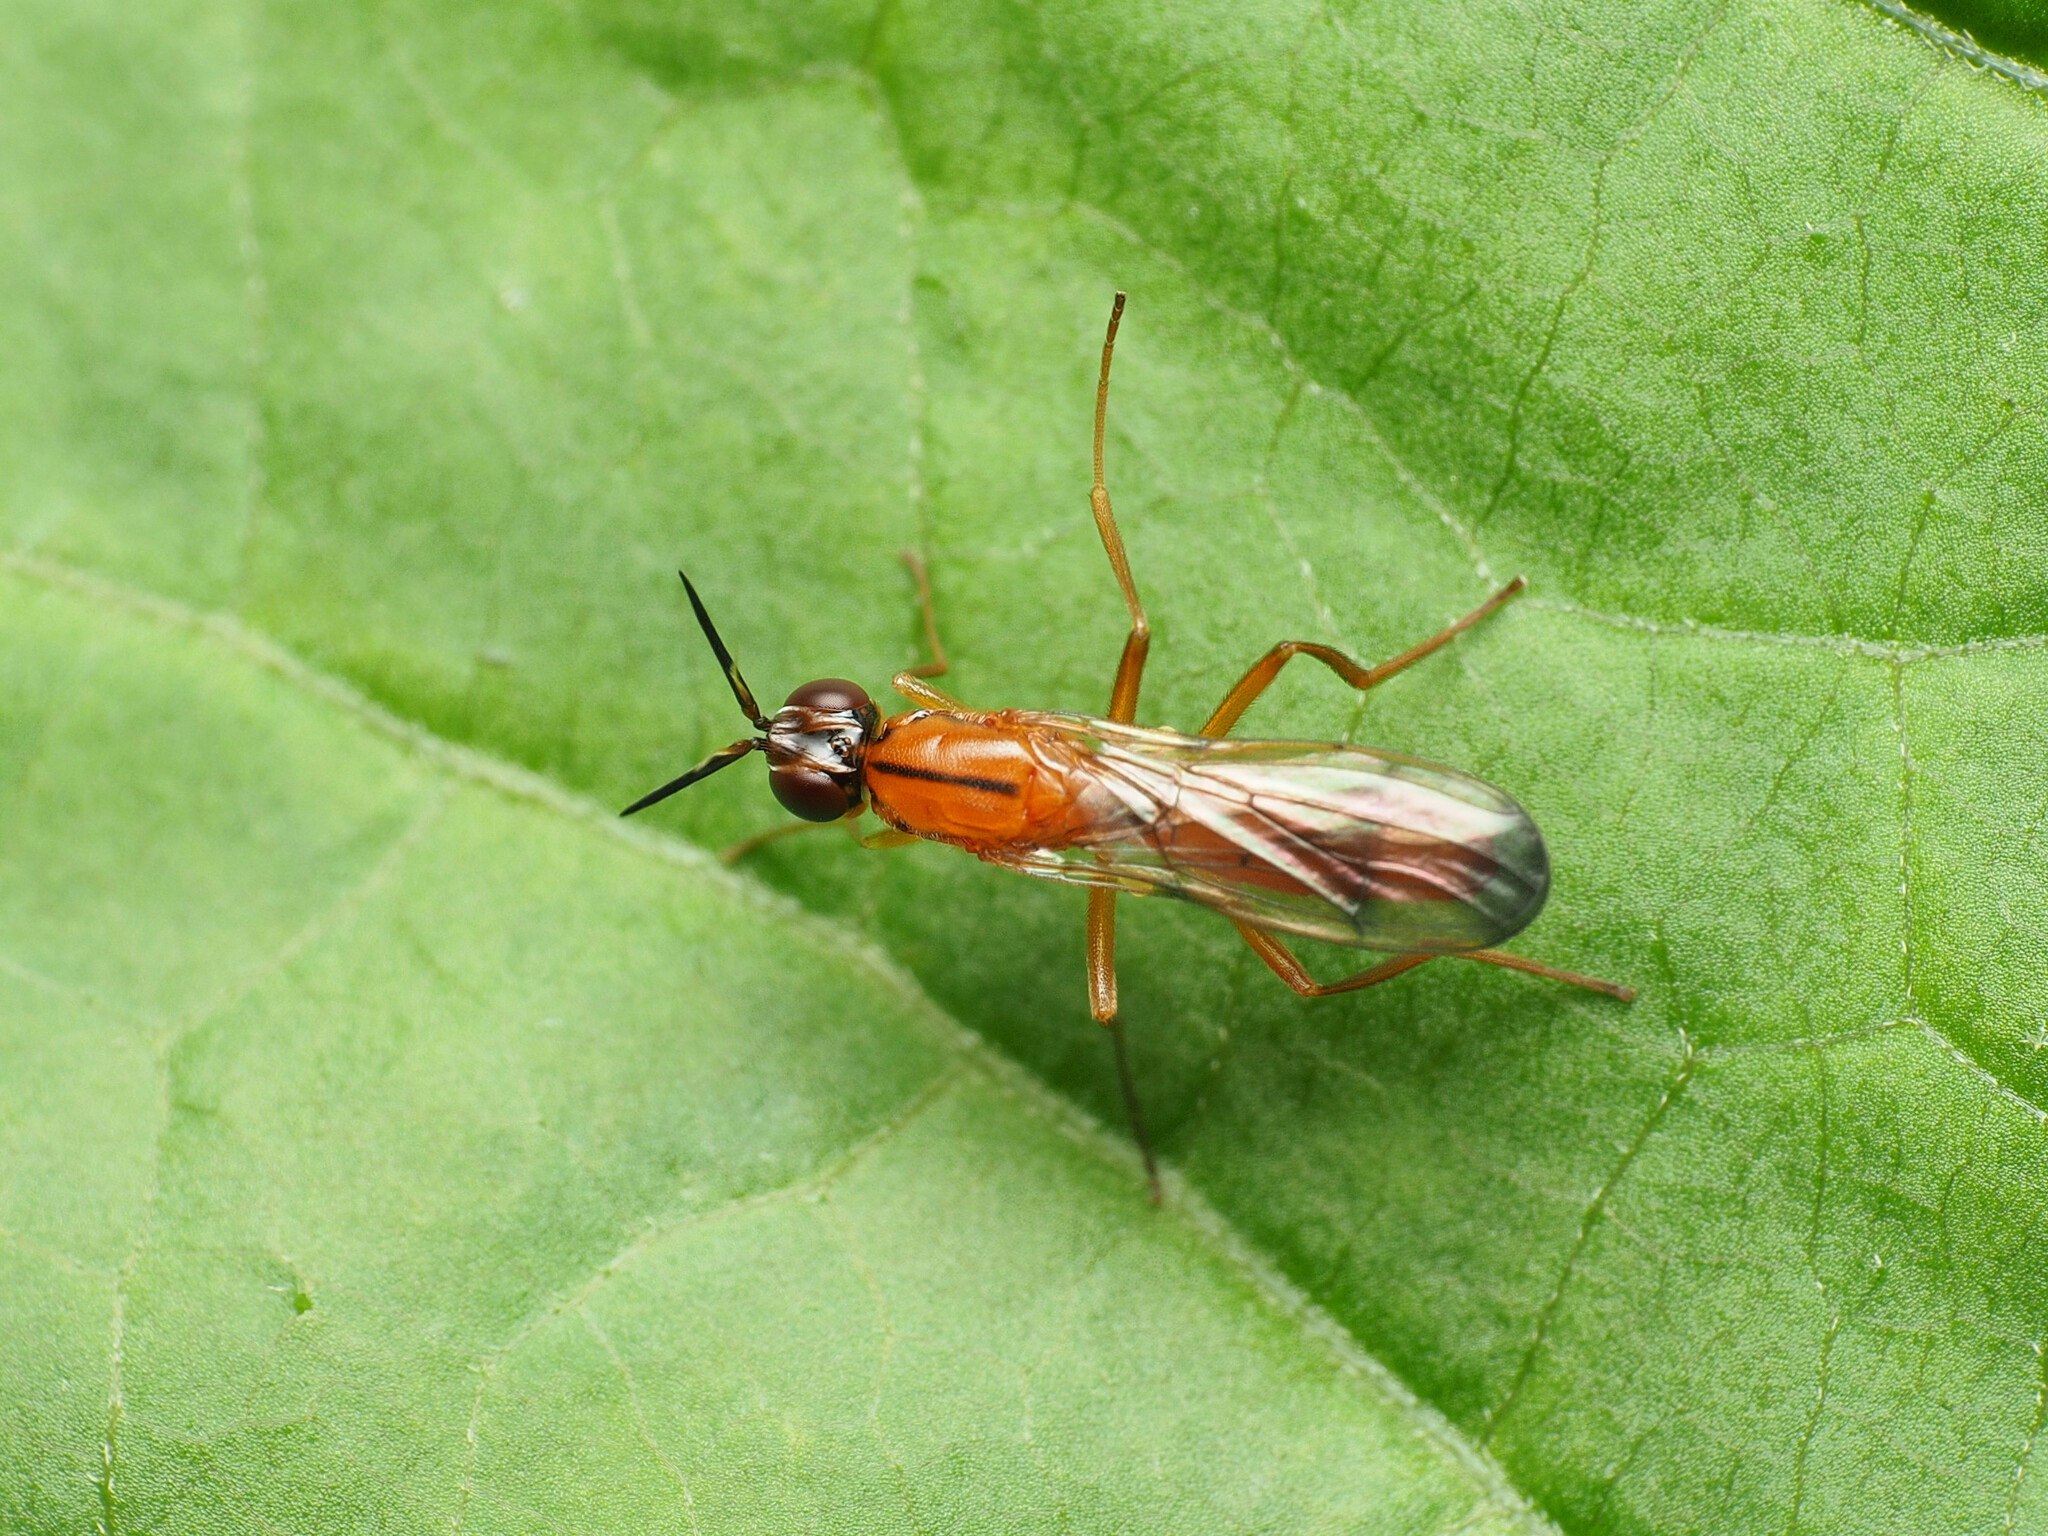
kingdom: Animalia
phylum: Arthropoda
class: Insecta
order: Diptera
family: Psilidae
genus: Loxocera
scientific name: Loxocera cylindrica
